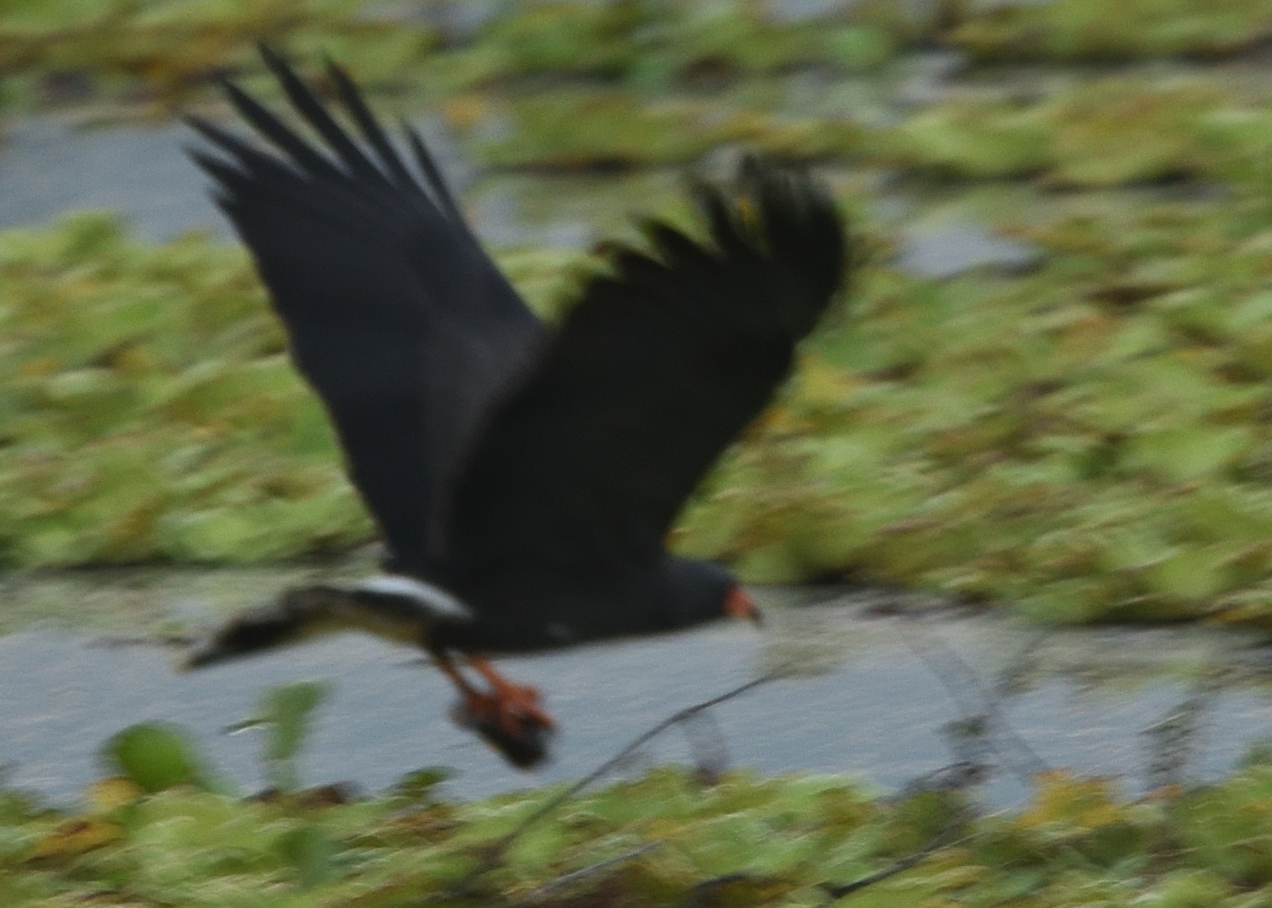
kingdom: Animalia
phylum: Chordata
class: Aves
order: Accipitriformes
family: Accipitridae
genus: Rostrhamus
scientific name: Rostrhamus sociabilis
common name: Snail kite
